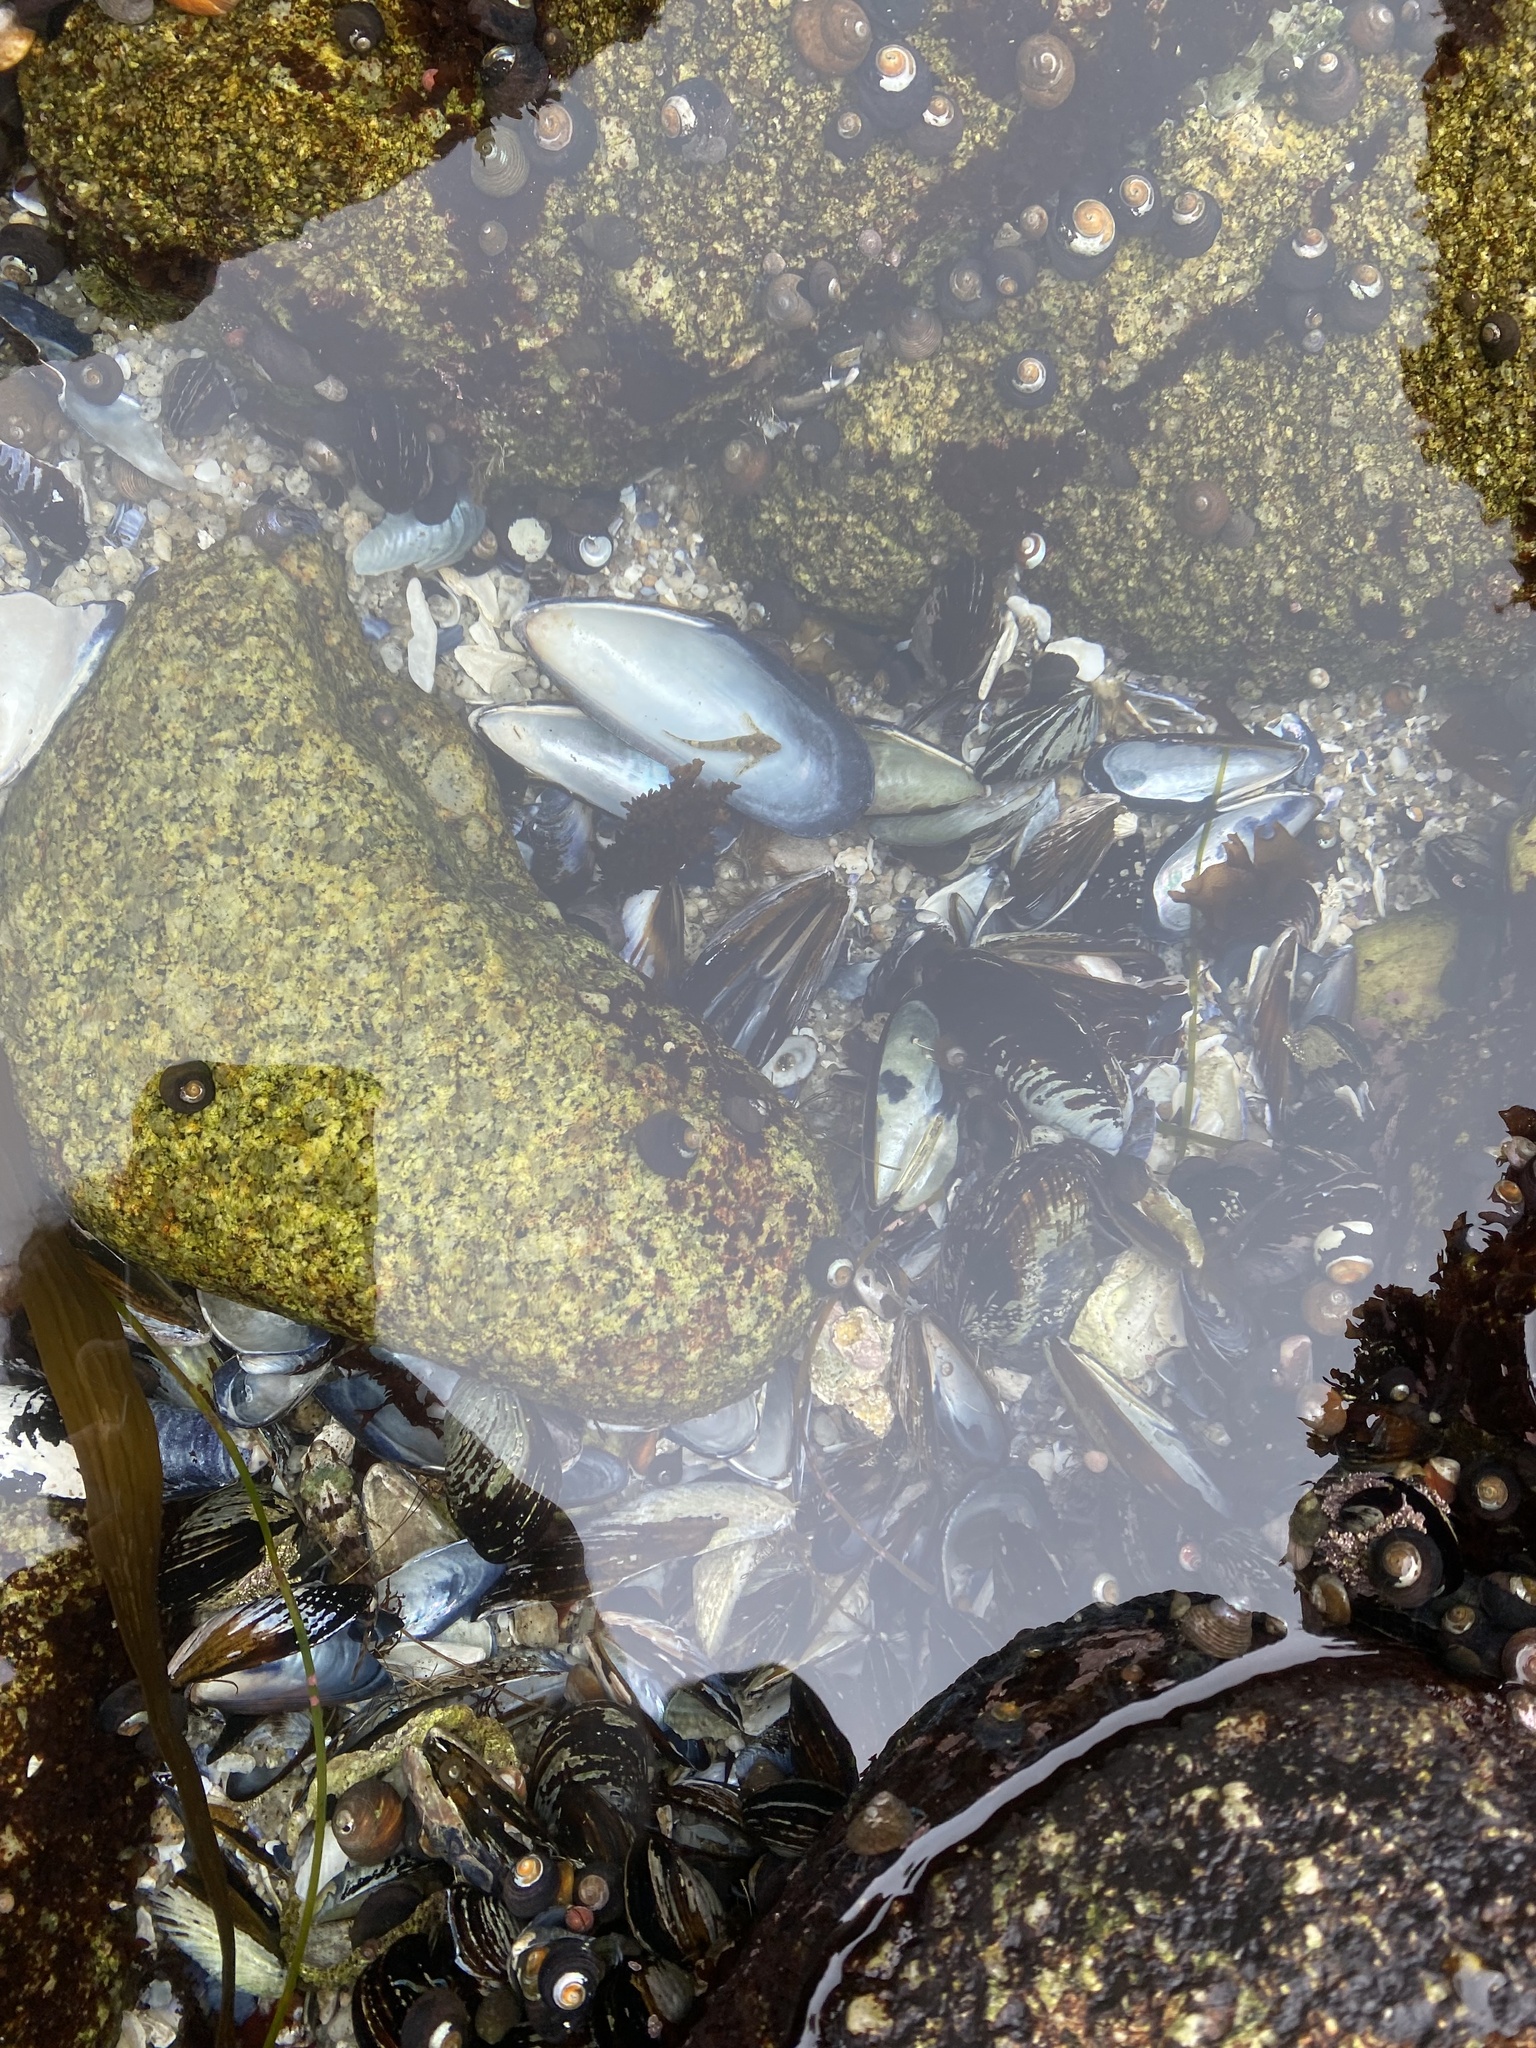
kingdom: Animalia
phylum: Chordata
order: Scorpaeniformes
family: Cottidae
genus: Clinocottus
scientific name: Clinocottus analis
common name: Woolly sculpin
